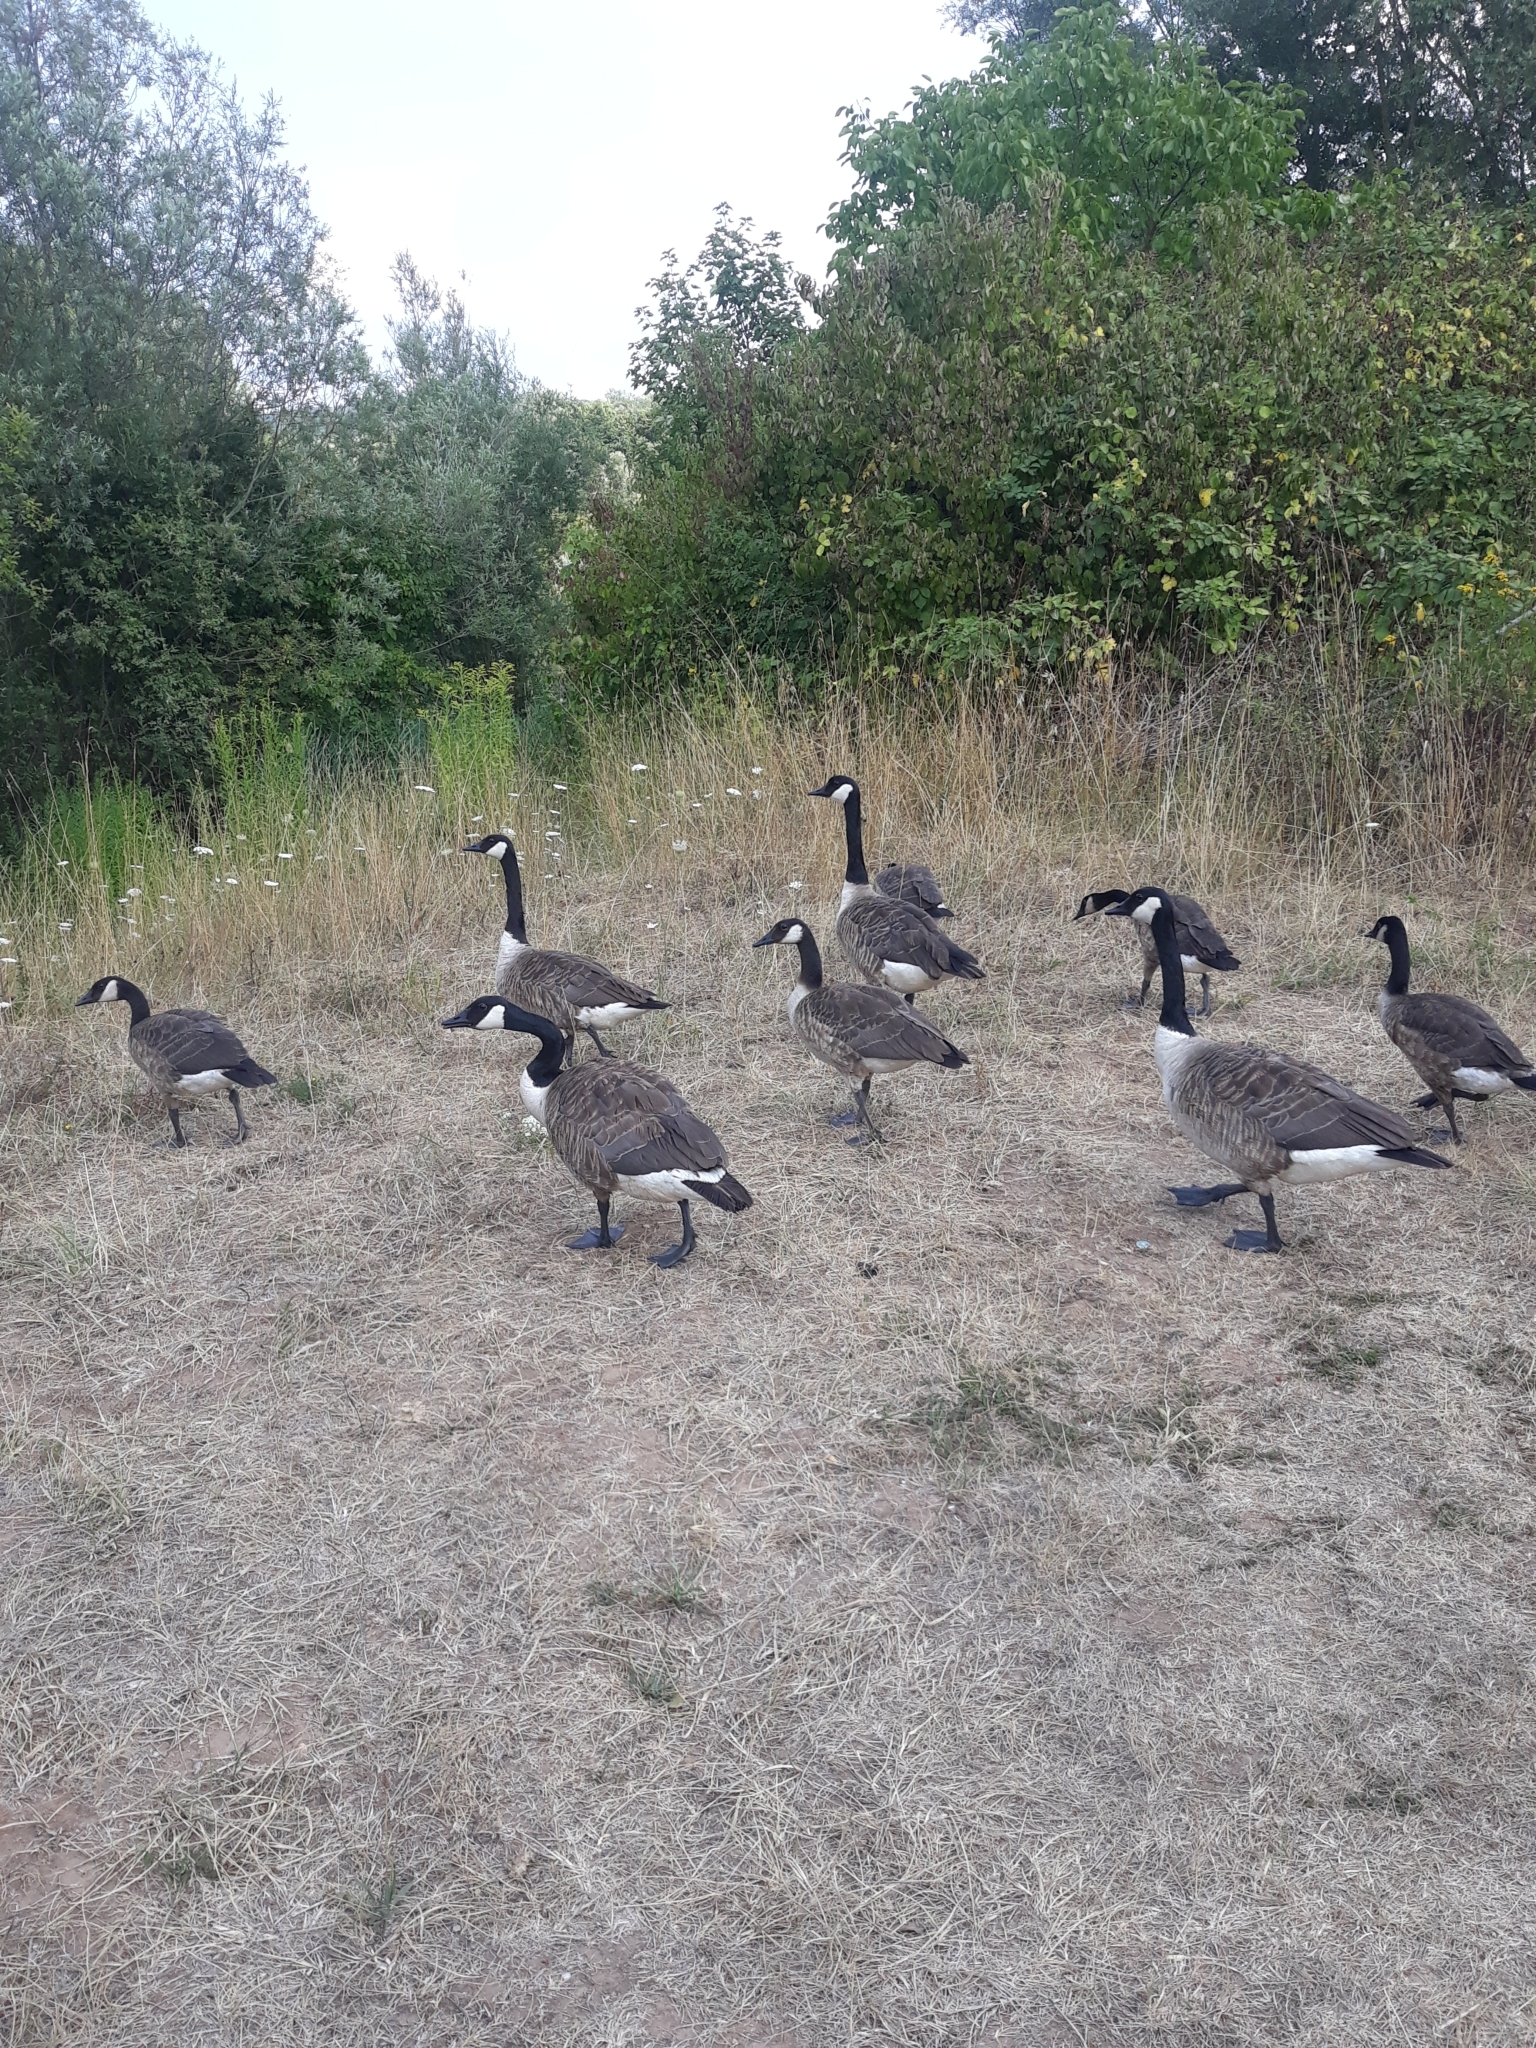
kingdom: Animalia
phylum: Chordata
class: Aves
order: Anseriformes
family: Anatidae
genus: Branta
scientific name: Branta canadensis
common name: Canada goose
